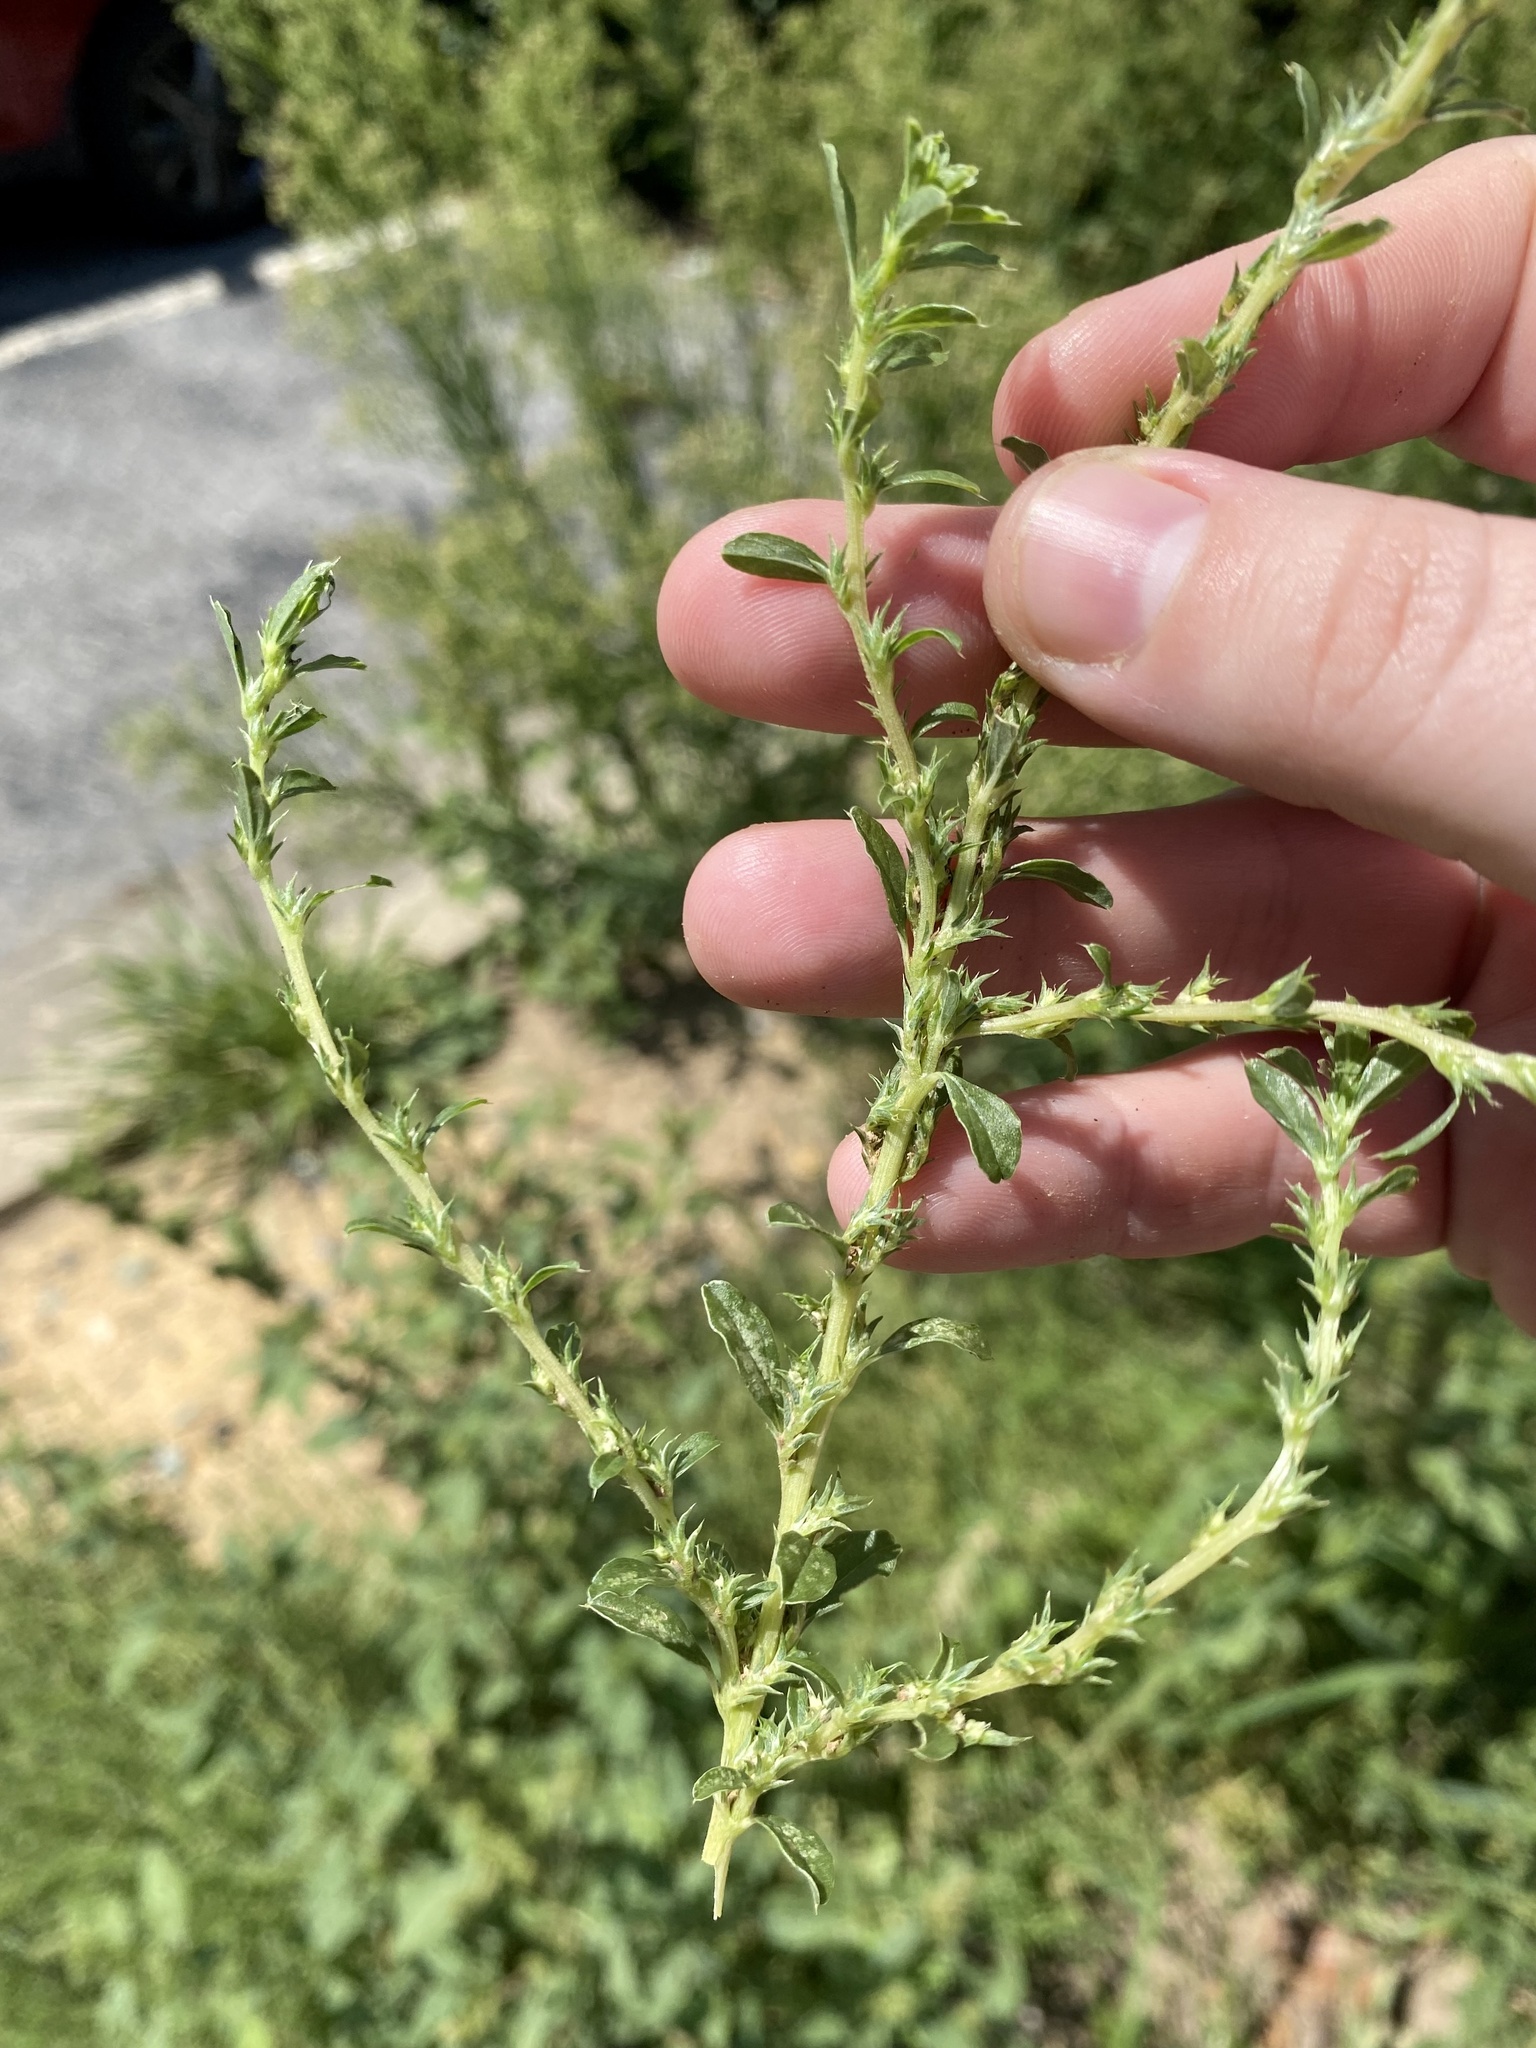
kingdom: Plantae
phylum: Tracheophyta
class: Magnoliopsida
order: Caryophyllales
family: Amaranthaceae
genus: Amaranthus
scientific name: Amaranthus albus
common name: White pigweed
